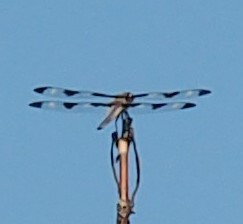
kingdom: Animalia
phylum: Arthropoda
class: Insecta
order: Odonata
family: Libellulidae
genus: Libellula
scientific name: Libellula pulchella
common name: Twelve-spotted skimmer
